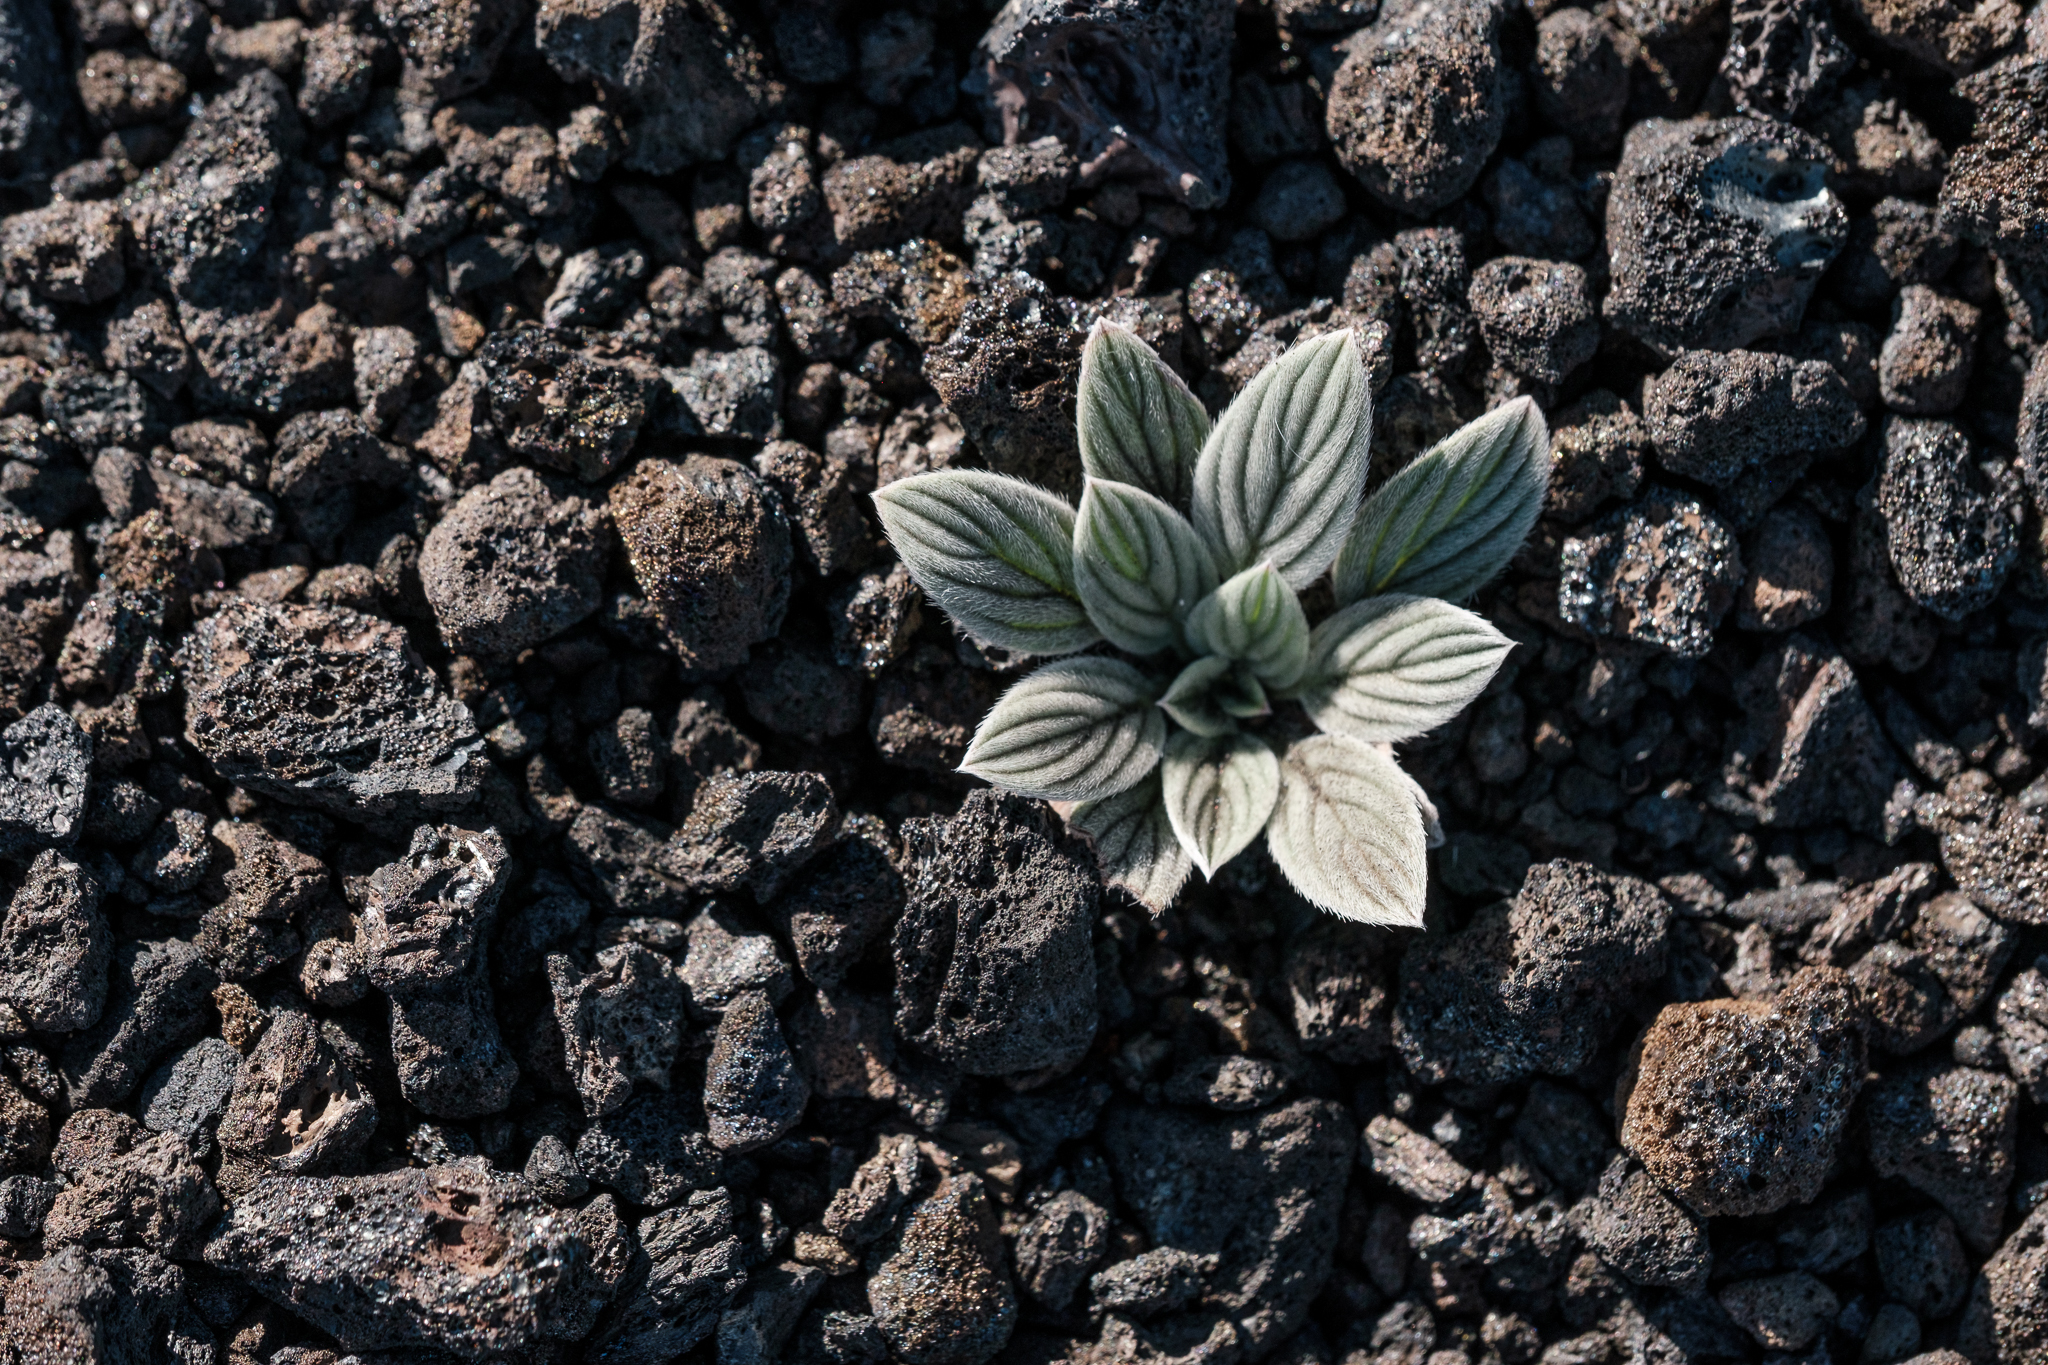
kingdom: Plantae
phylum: Tracheophyta
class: Magnoliopsida
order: Boraginales
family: Hydrophyllaceae
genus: Phacelia
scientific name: Phacelia hastata
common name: Silver-leaved phacelia
